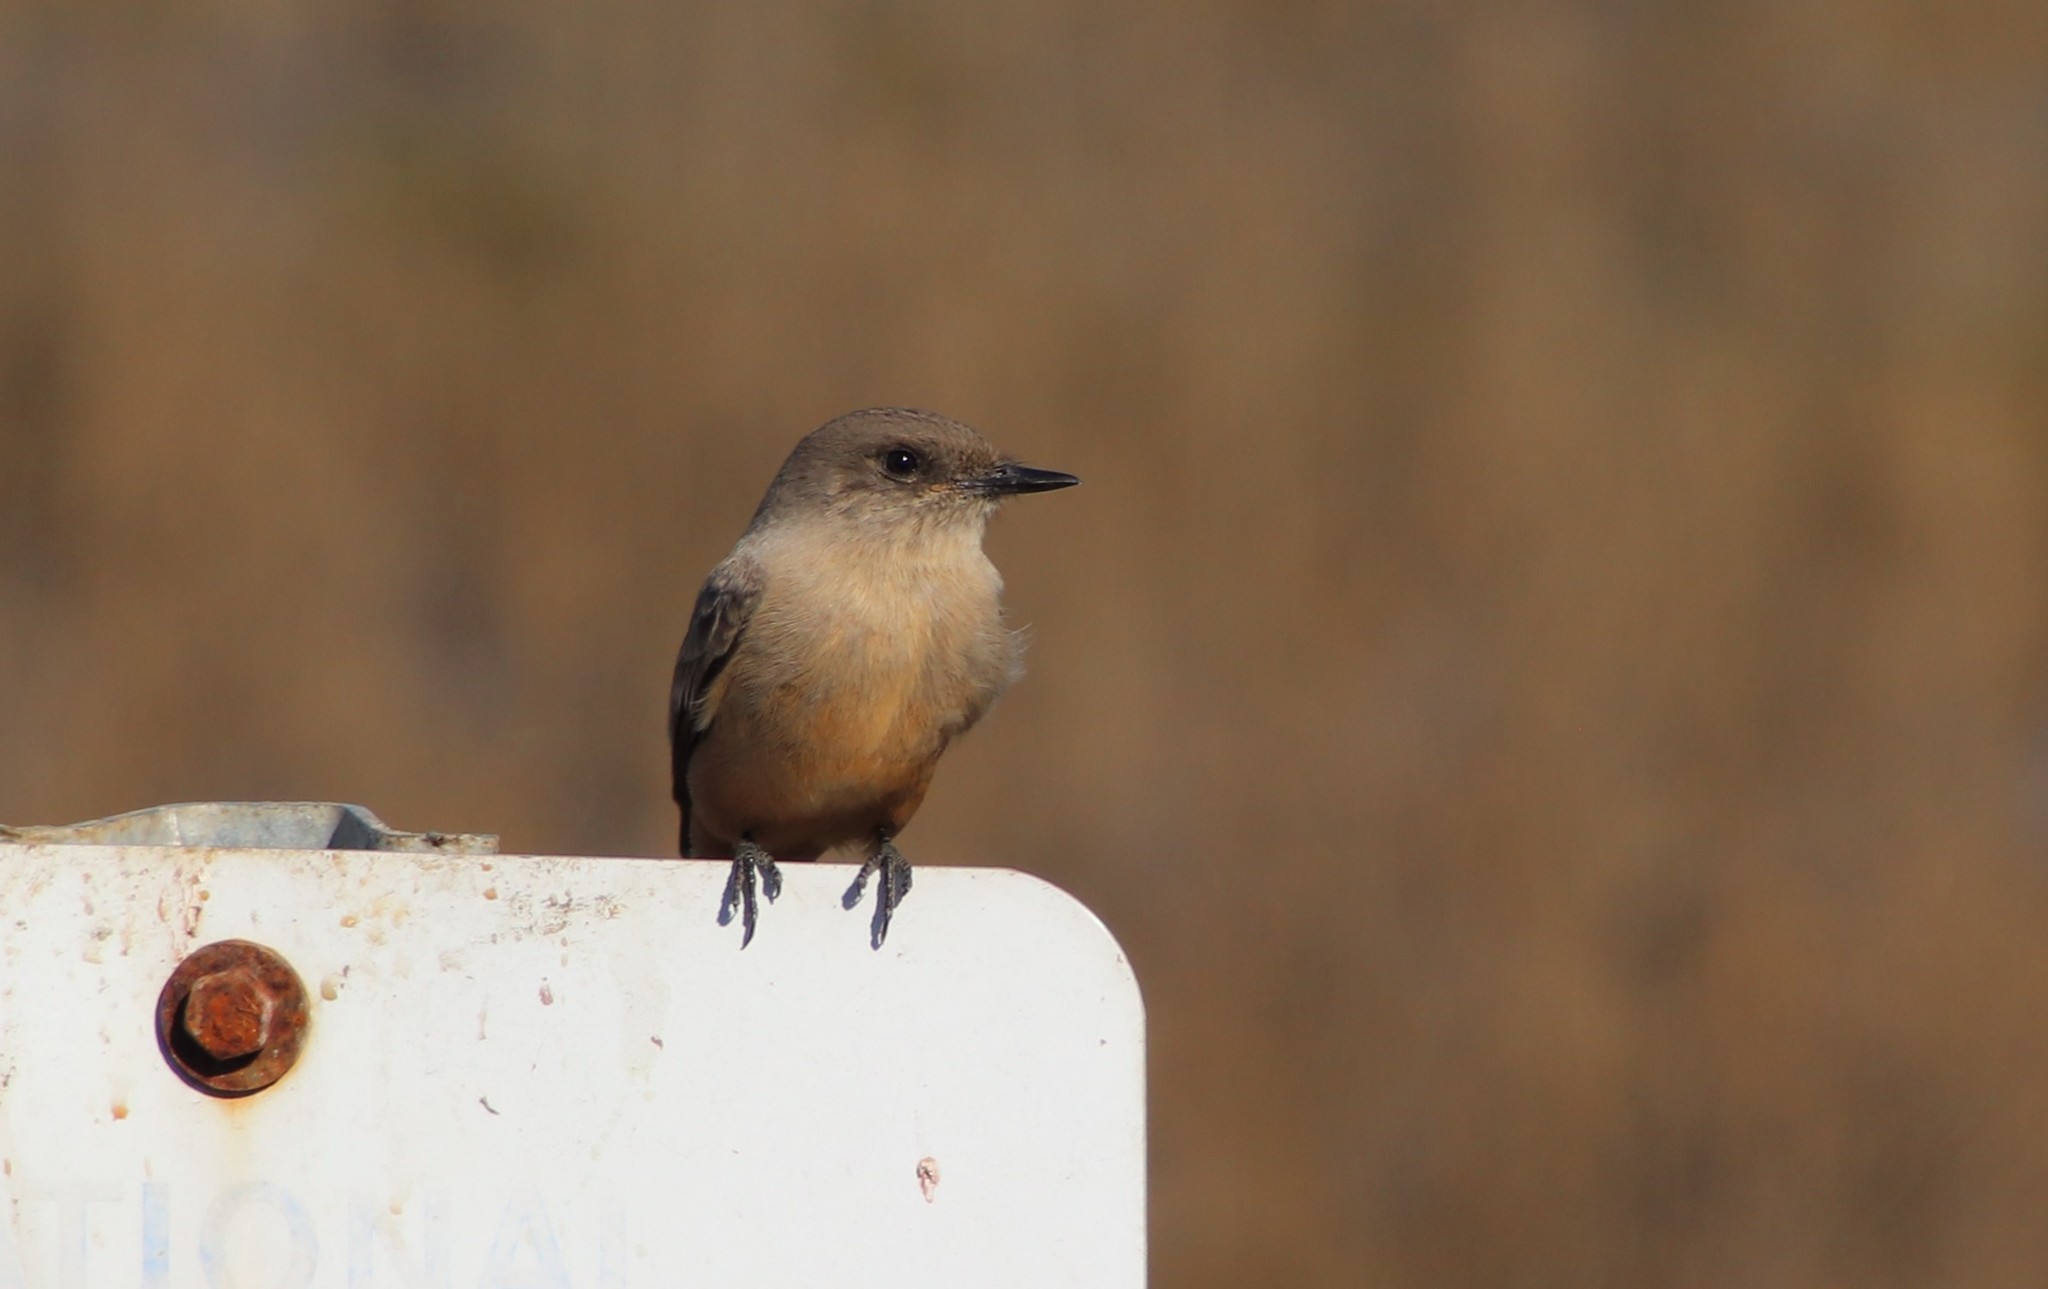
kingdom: Animalia
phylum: Chordata
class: Aves
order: Passeriformes
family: Tyrannidae
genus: Sayornis
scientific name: Sayornis saya
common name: Say's phoebe
